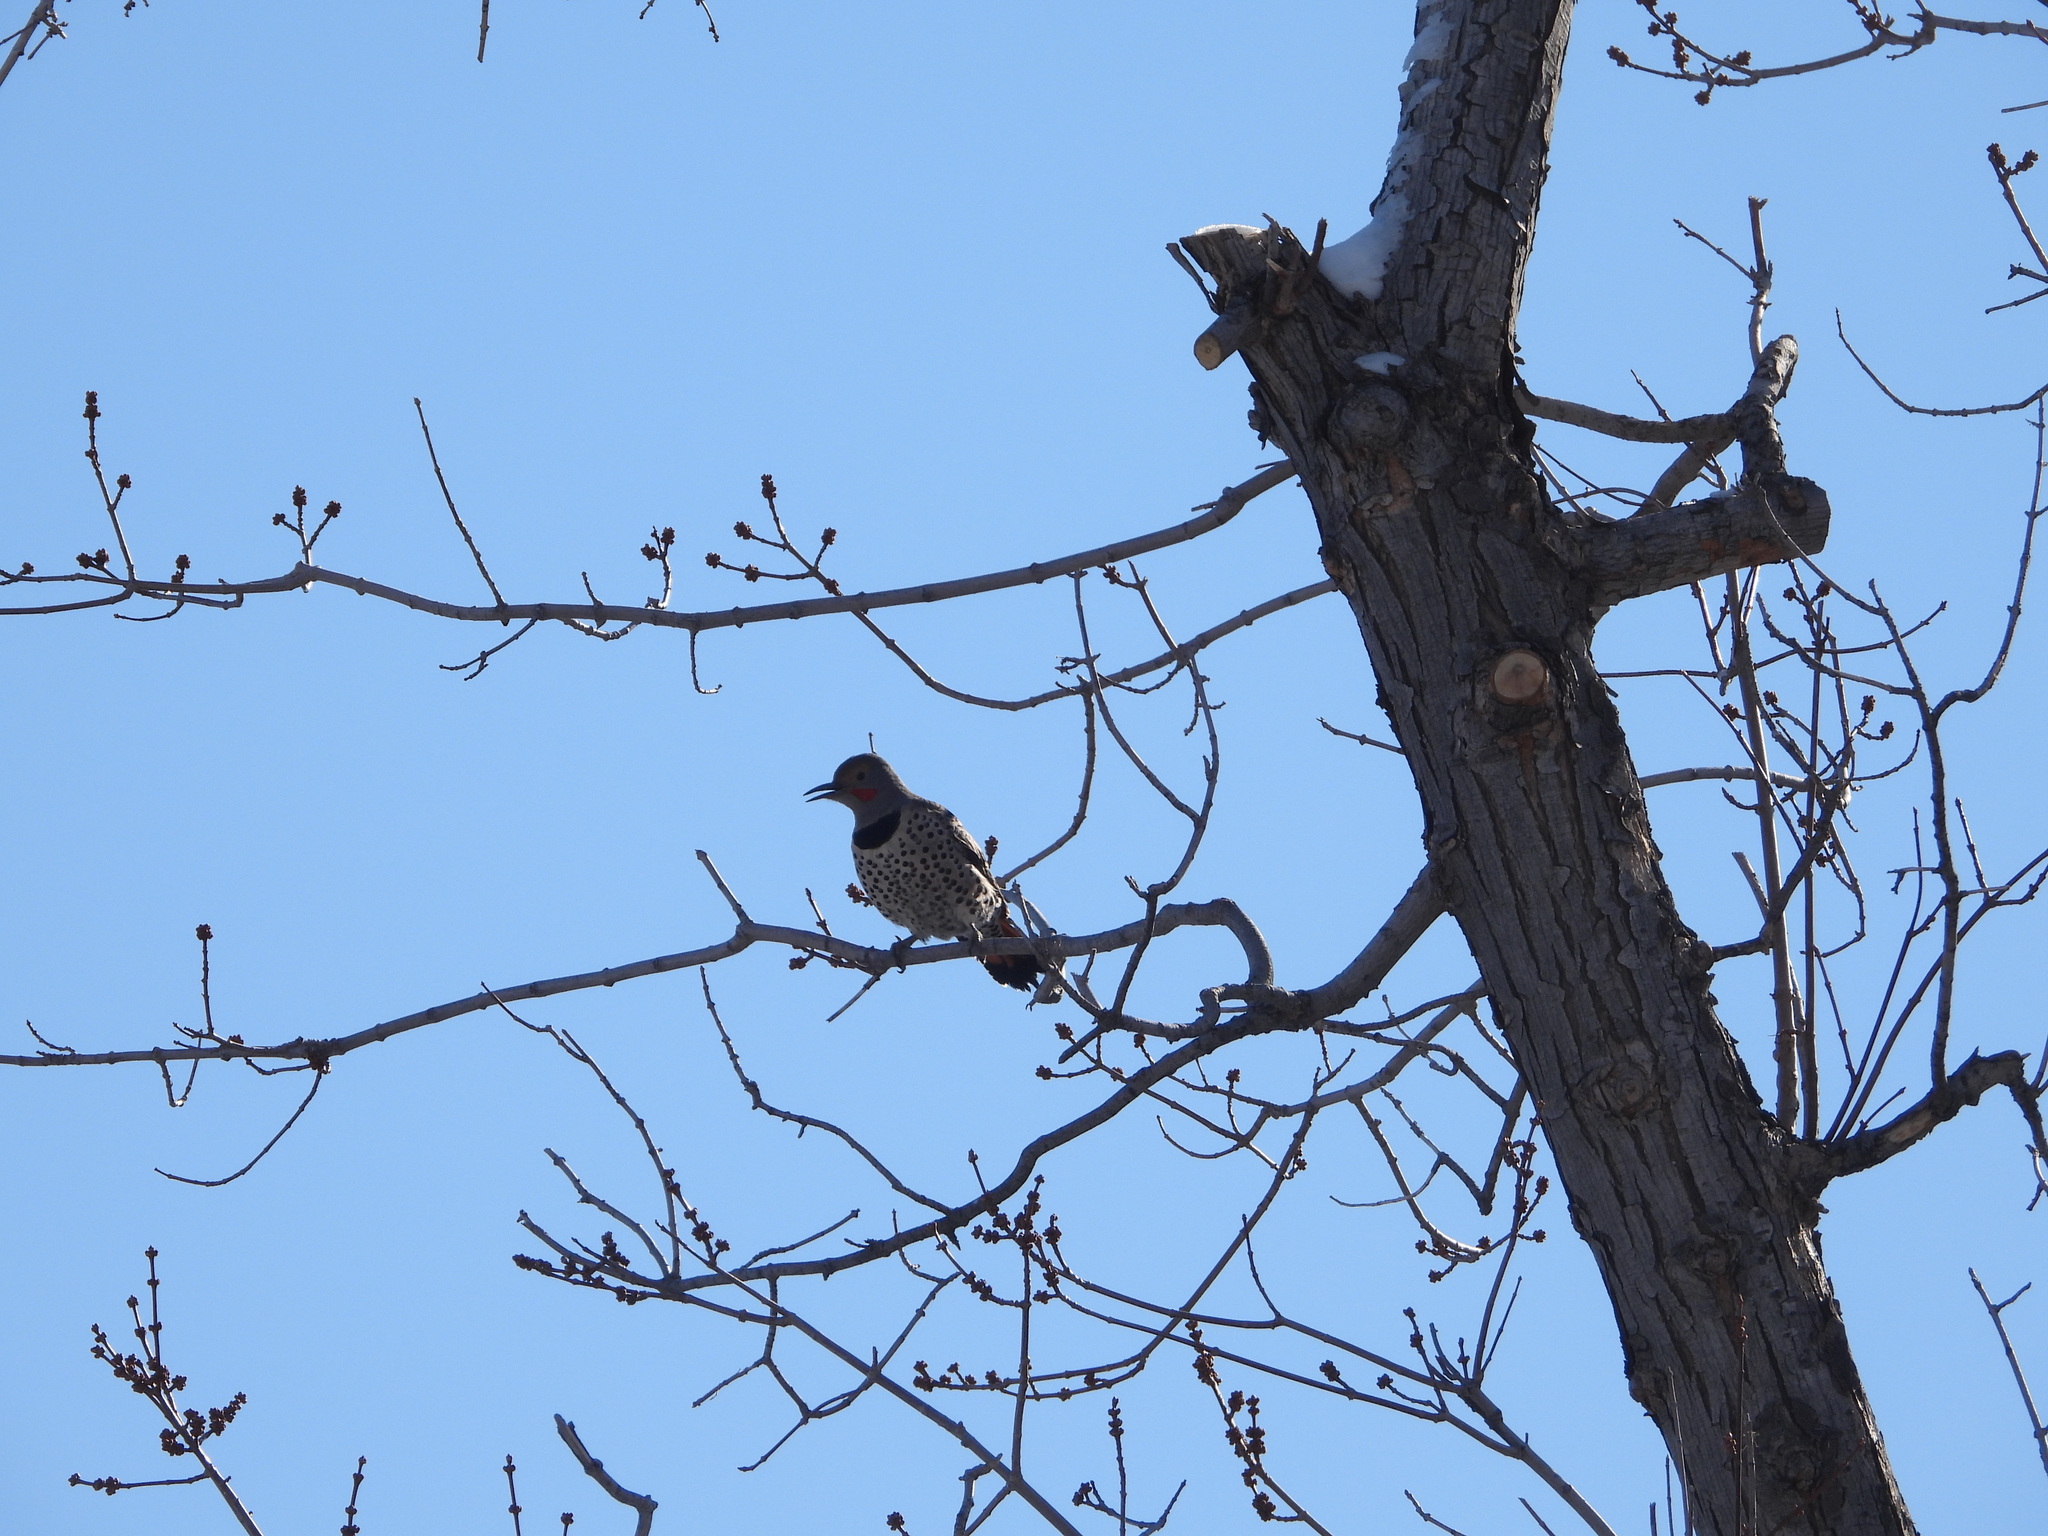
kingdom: Animalia
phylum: Chordata
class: Aves
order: Piciformes
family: Picidae
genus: Colaptes
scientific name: Colaptes auratus
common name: Northern flicker
